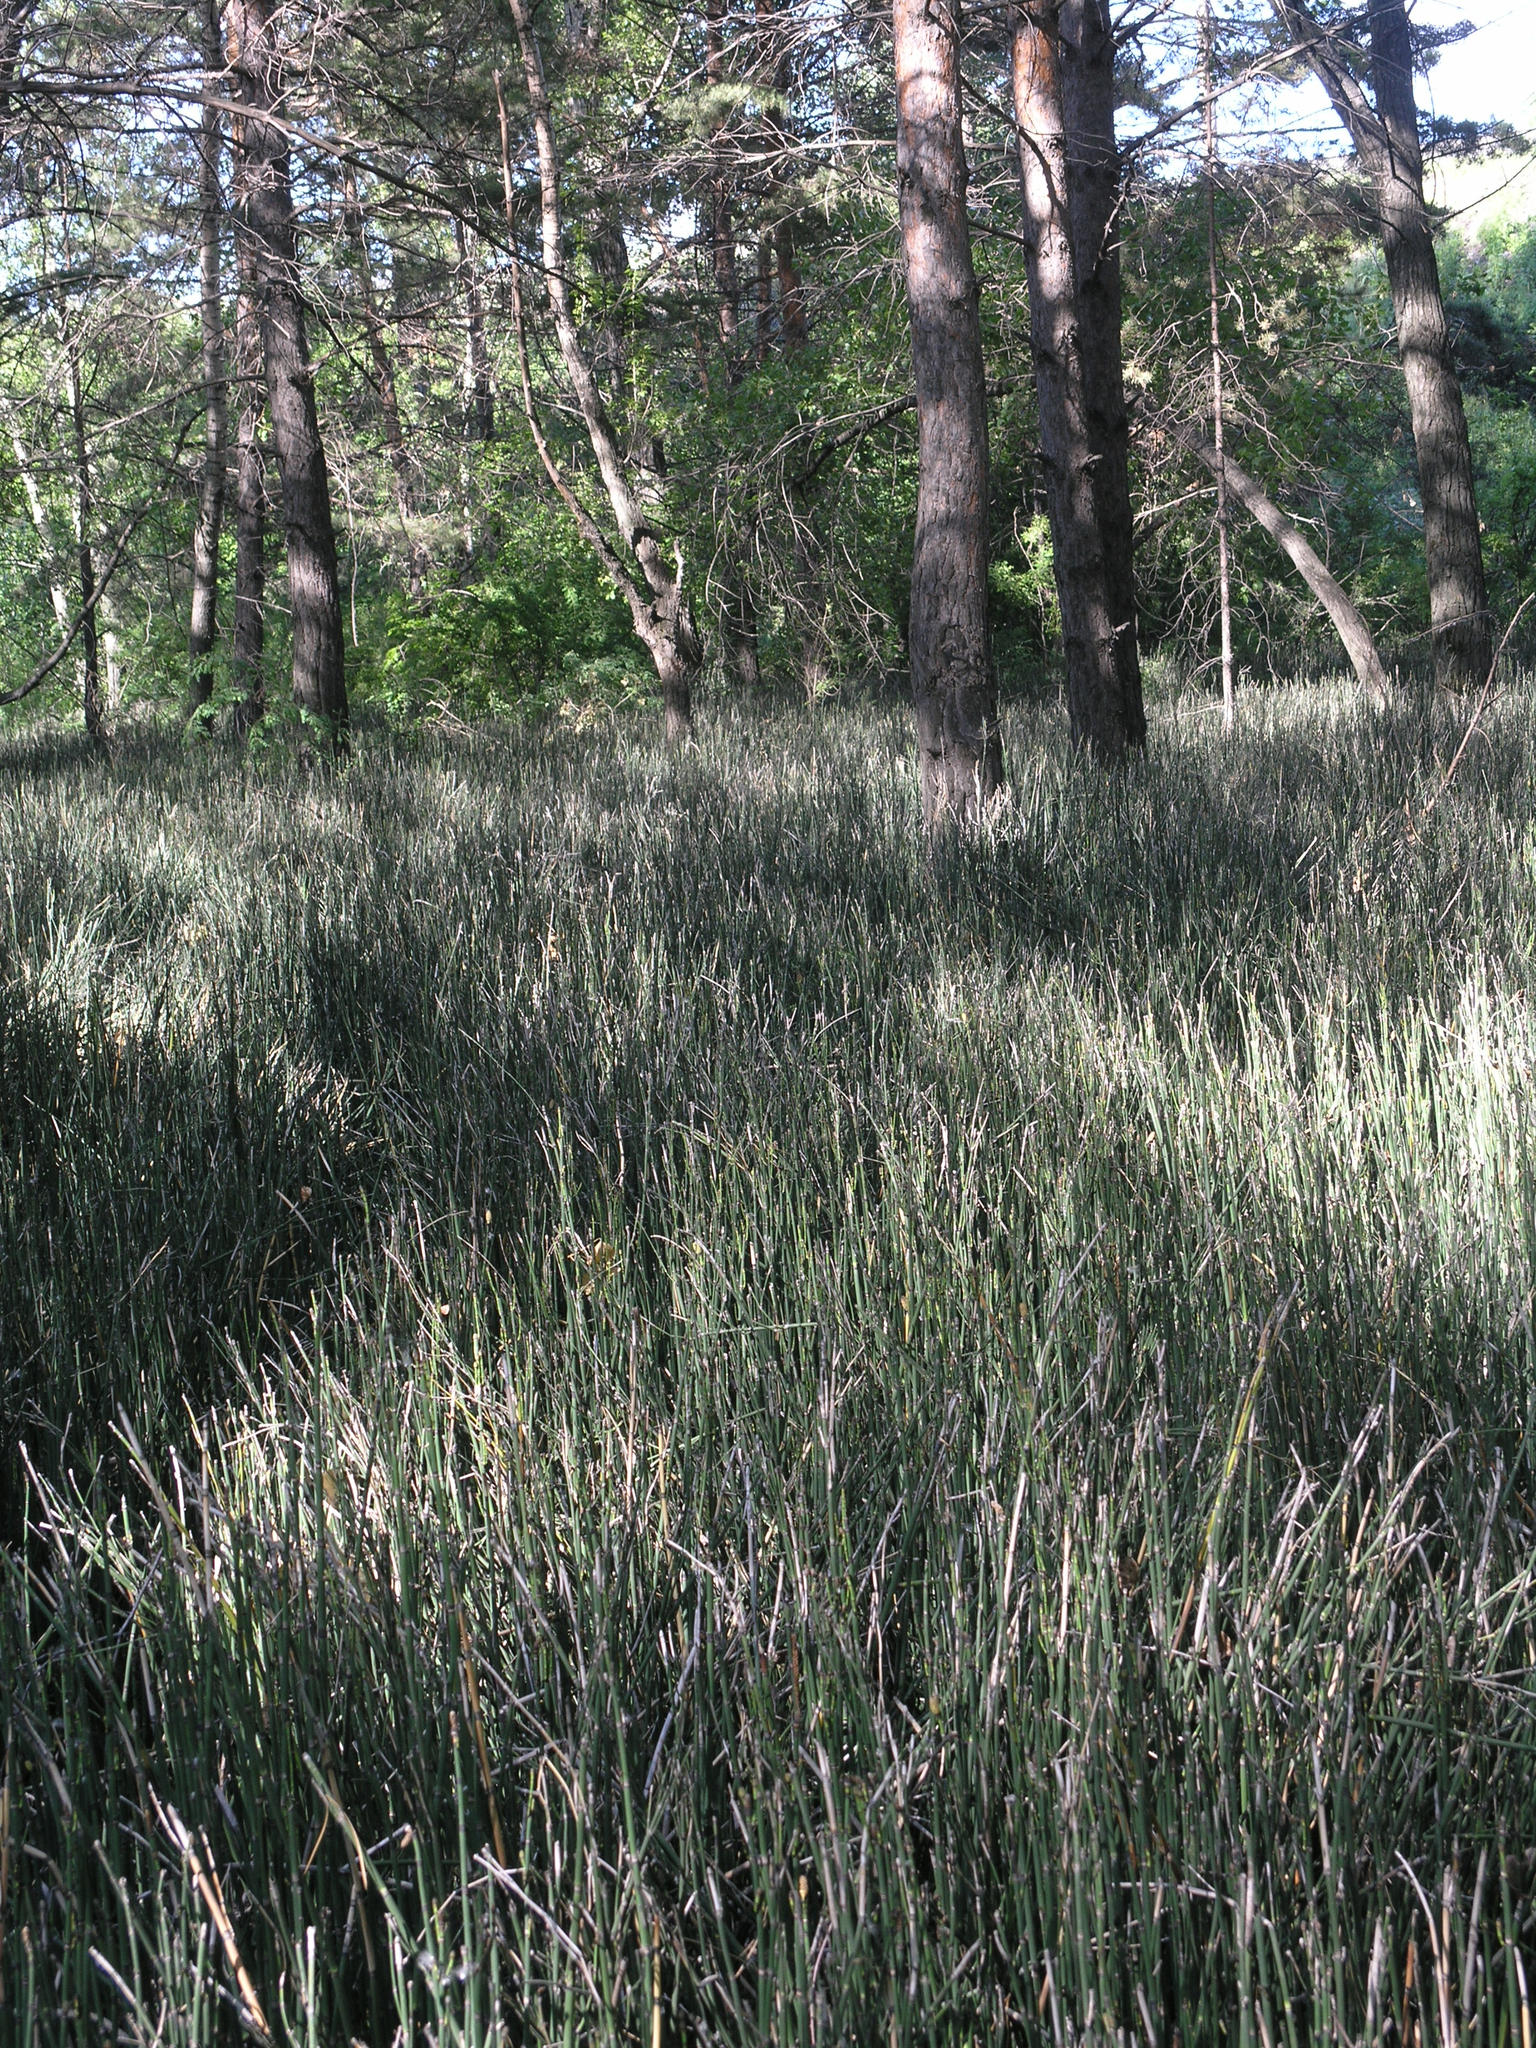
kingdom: Plantae
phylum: Tracheophyta
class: Polypodiopsida
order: Equisetales
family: Equisetaceae
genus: Equisetum
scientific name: Equisetum hyemale
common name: Rough horsetail
